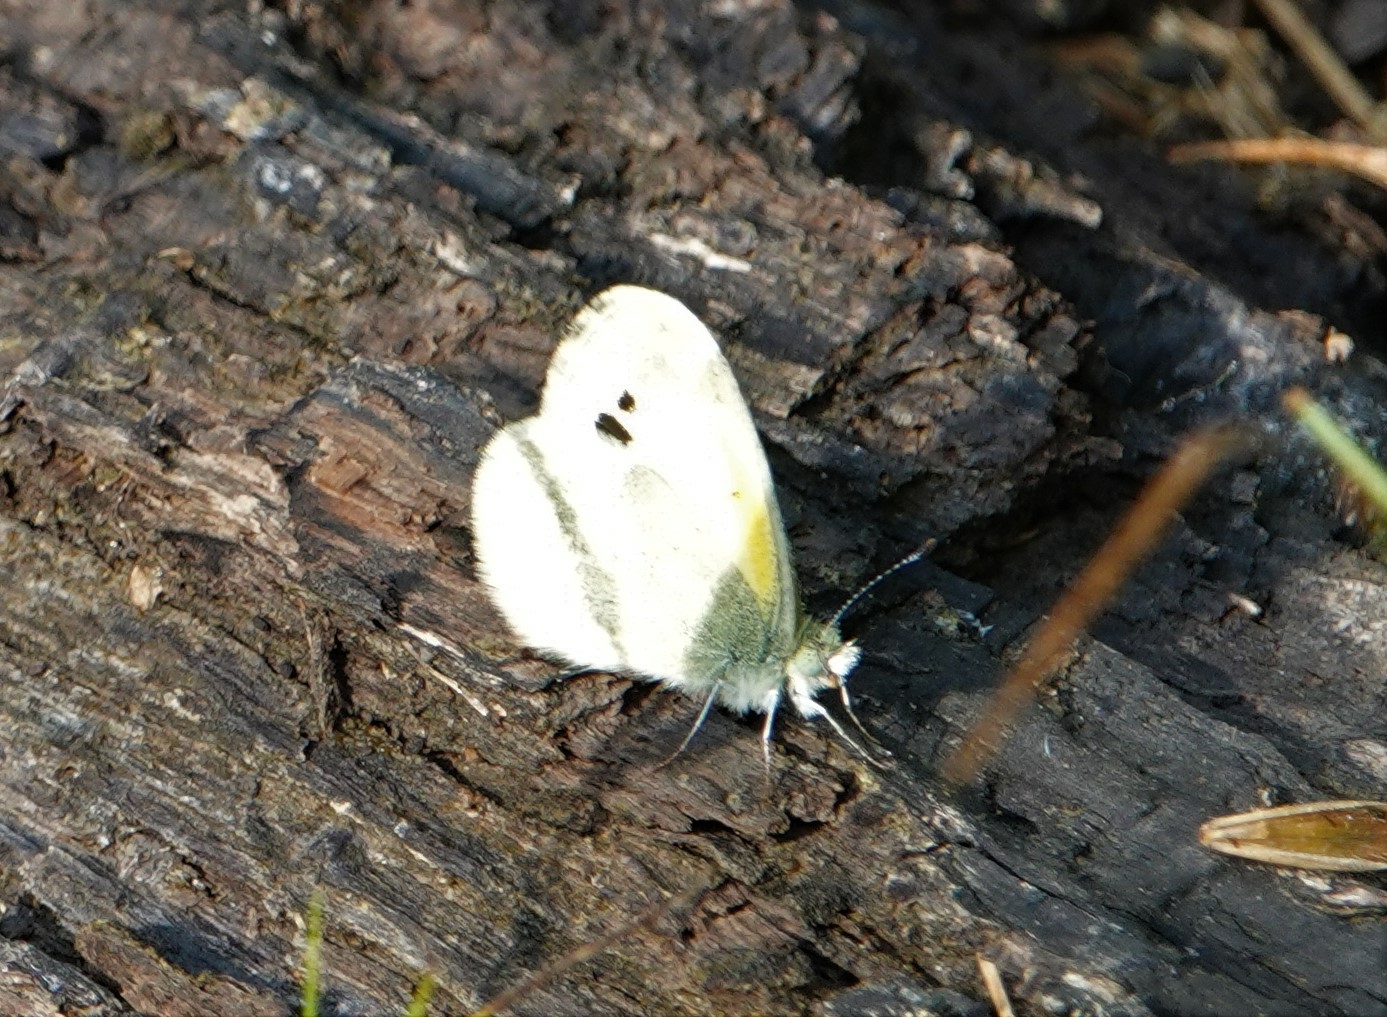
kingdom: Animalia
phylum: Arthropoda
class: Insecta
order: Lepidoptera
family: Pieridae
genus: Nathalis
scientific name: Nathalis iole
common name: Dainty sulphur
